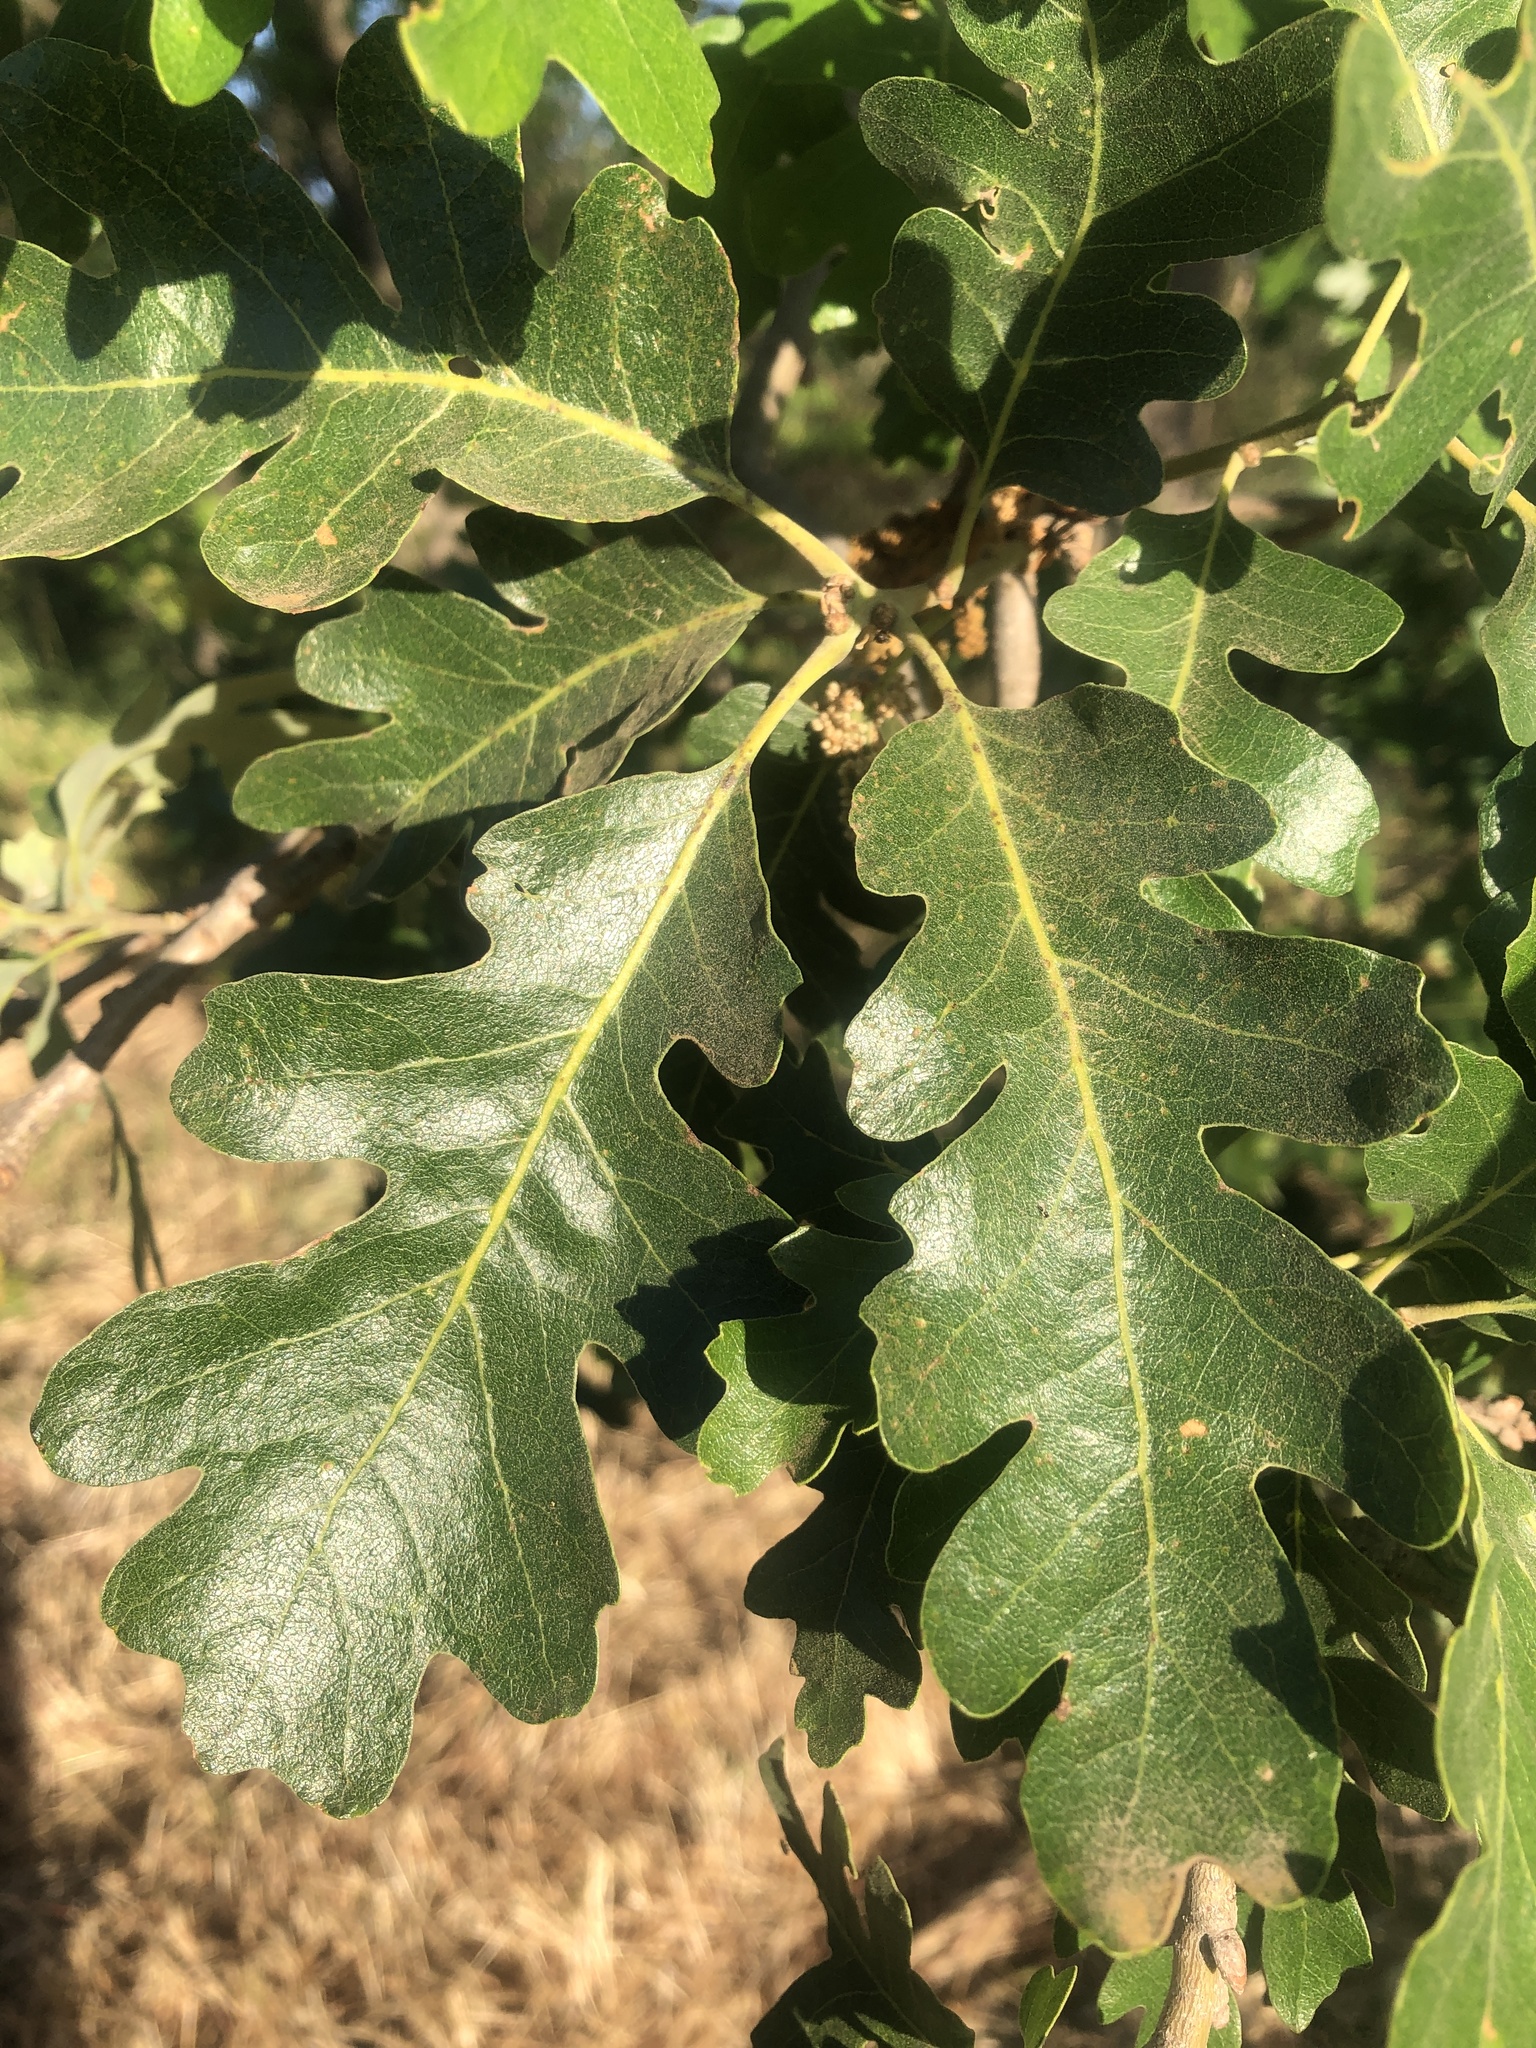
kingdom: Plantae
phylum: Tracheophyta
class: Magnoliopsida
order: Fagales
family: Fagaceae
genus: Quercus
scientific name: Quercus lobata
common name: Valley oak
